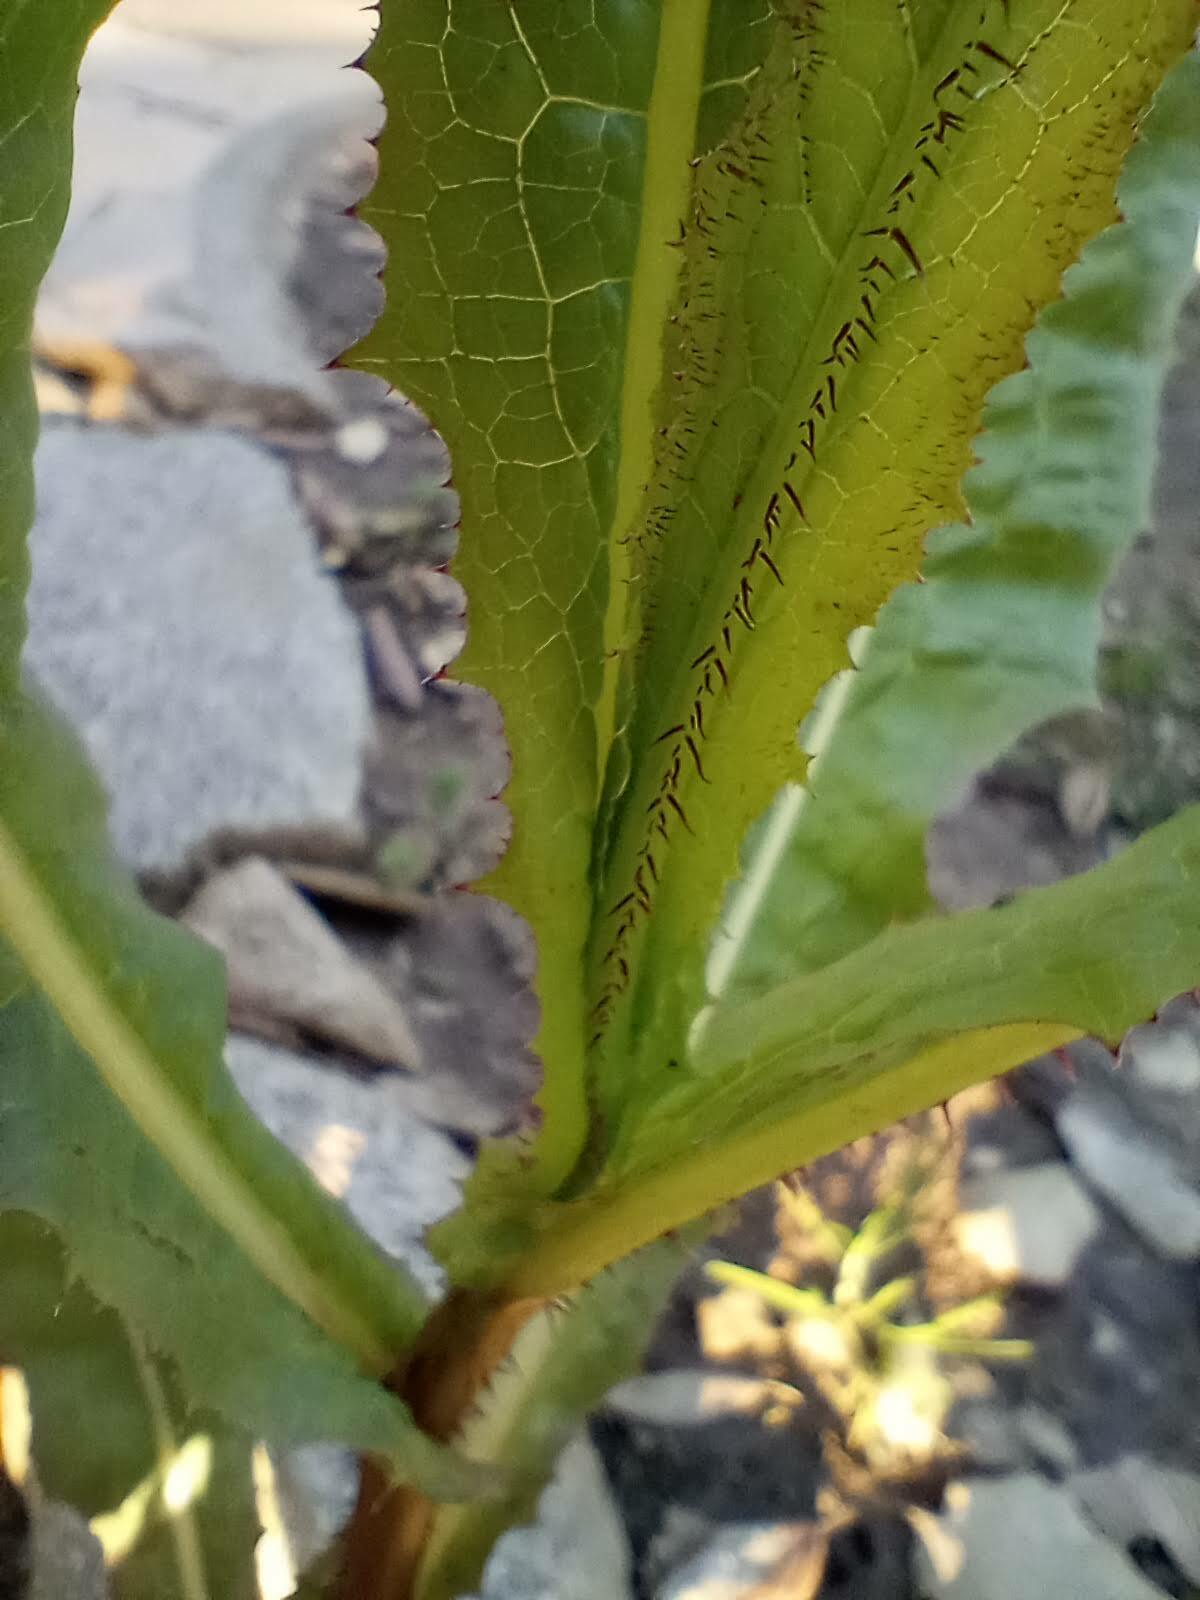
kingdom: Plantae
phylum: Tracheophyta
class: Magnoliopsida
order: Asterales
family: Asteraceae
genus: Lactuca
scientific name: Lactuca serriola
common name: Prickly lettuce
